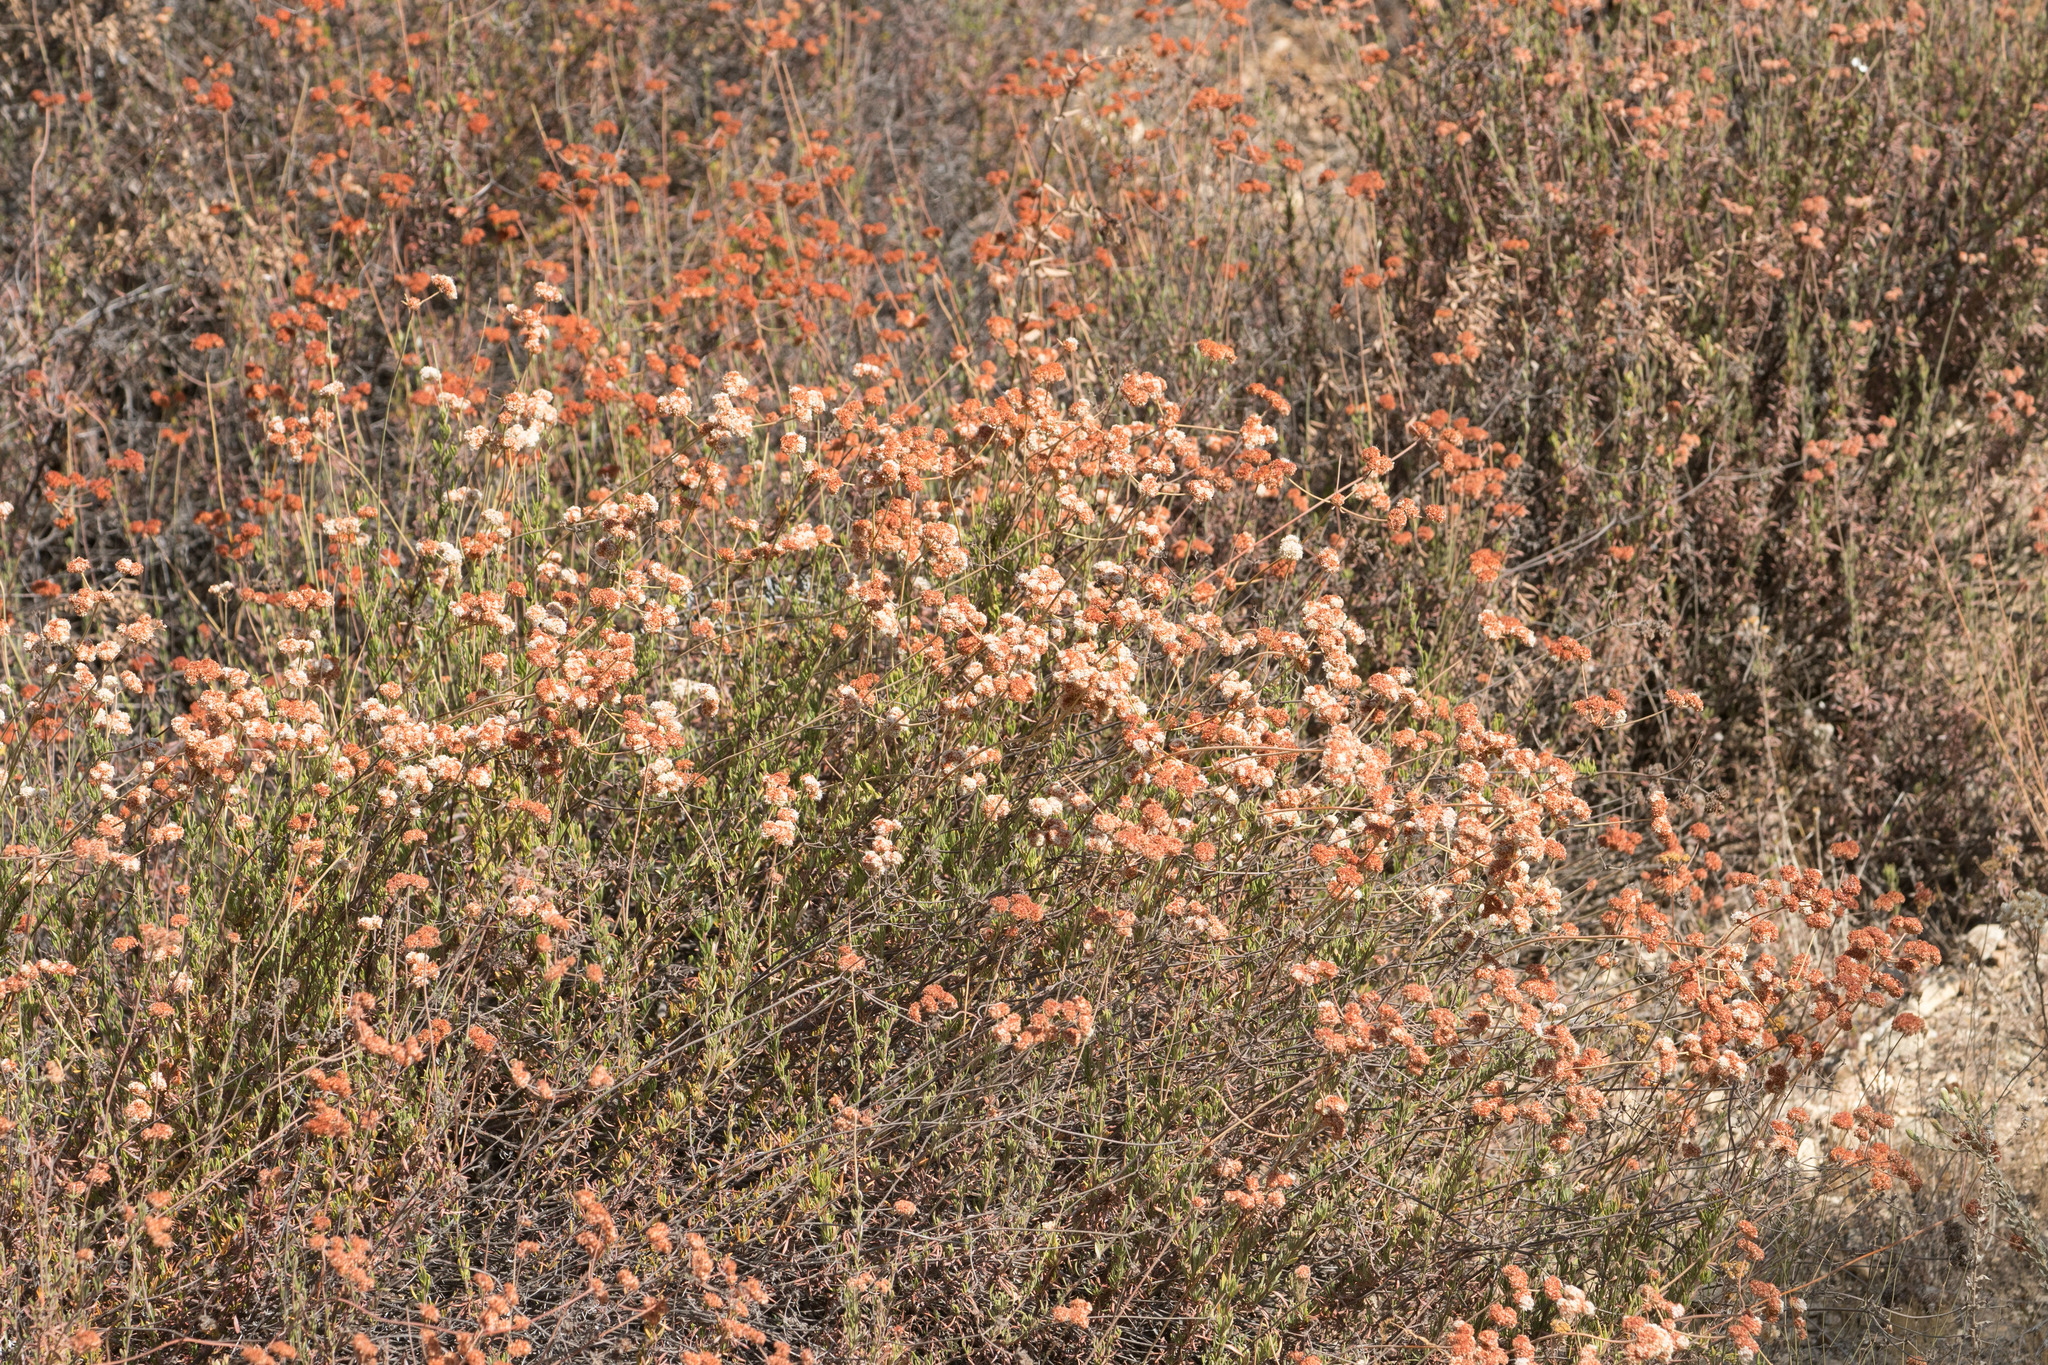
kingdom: Plantae
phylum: Tracheophyta
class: Magnoliopsida
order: Caryophyllales
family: Polygonaceae
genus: Eriogonum
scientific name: Eriogonum fasciculatum
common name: California wild buckwheat
